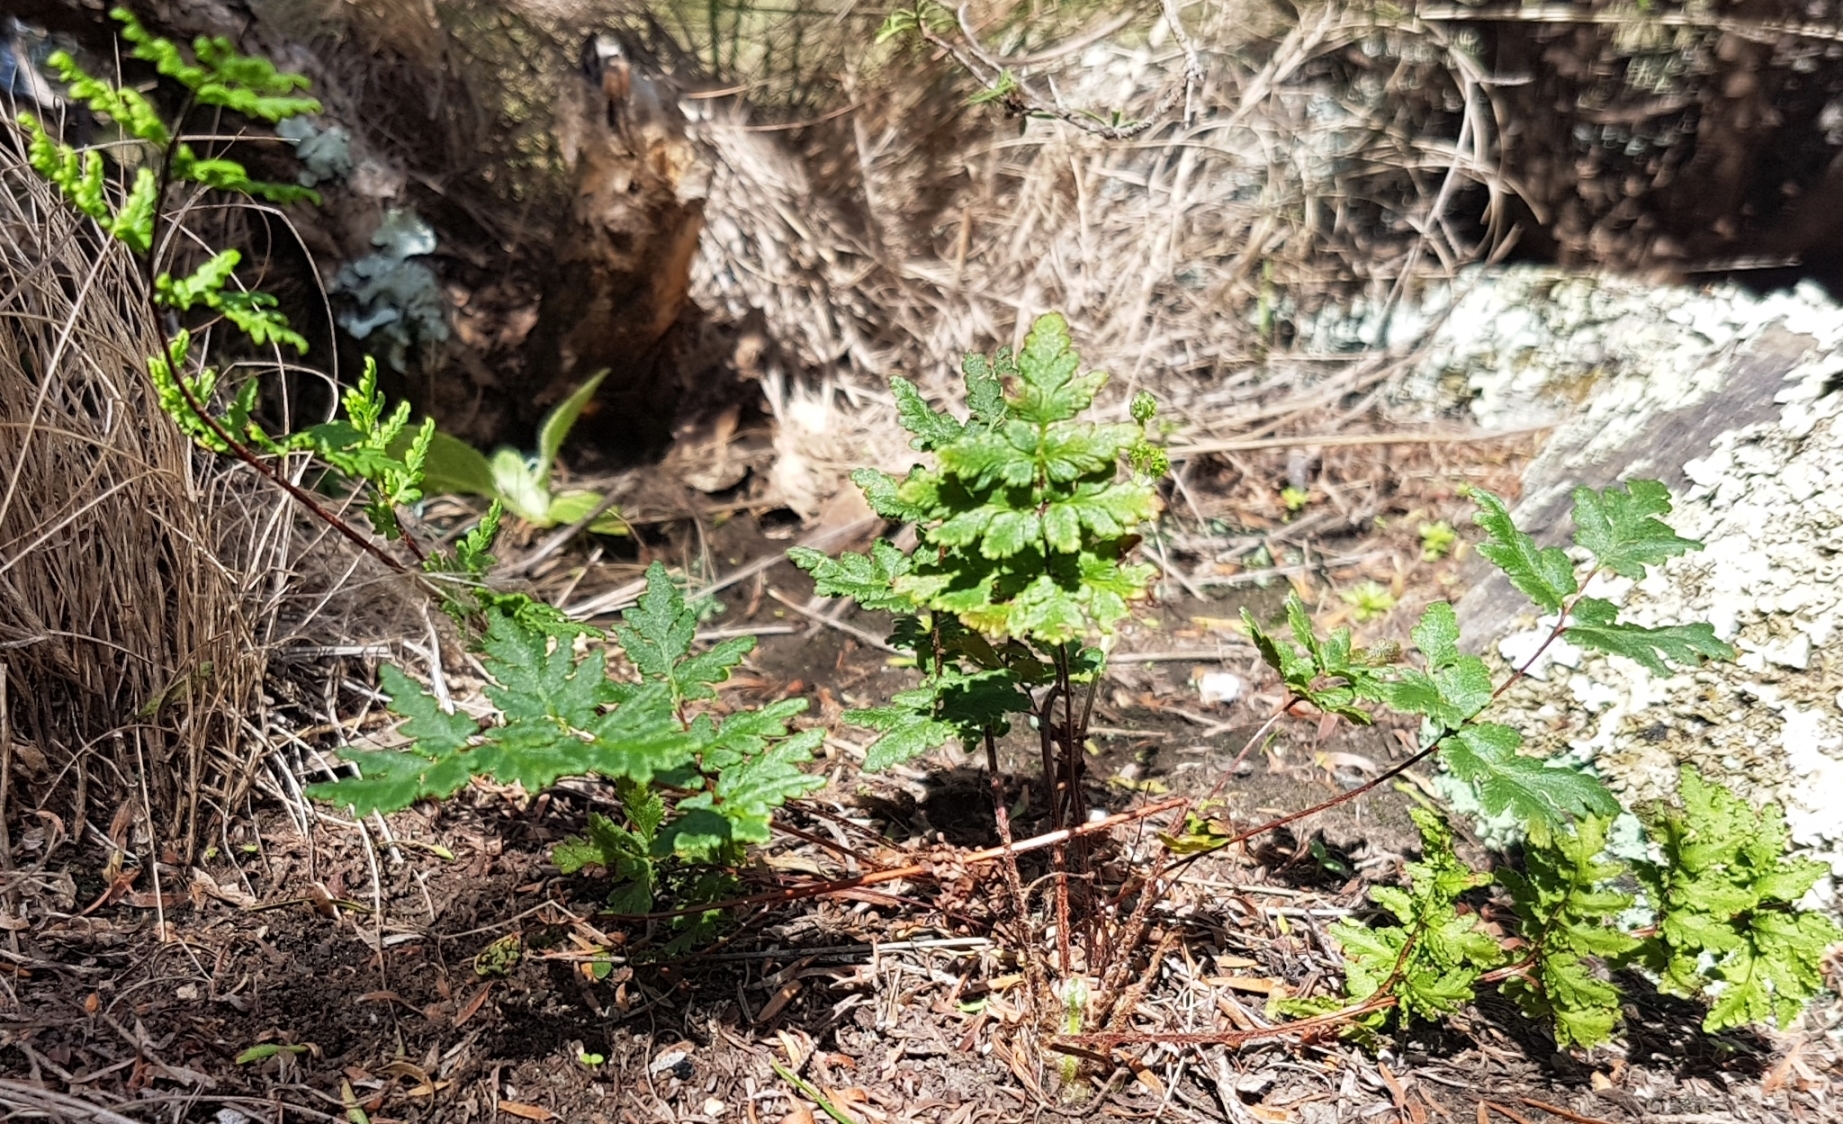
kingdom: Plantae
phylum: Tracheophyta
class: Polypodiopsida
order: Polypodiales
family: Pteridaceae
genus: Cheilanthes
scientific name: Cheilanthes sieberi
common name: Mulga fern
